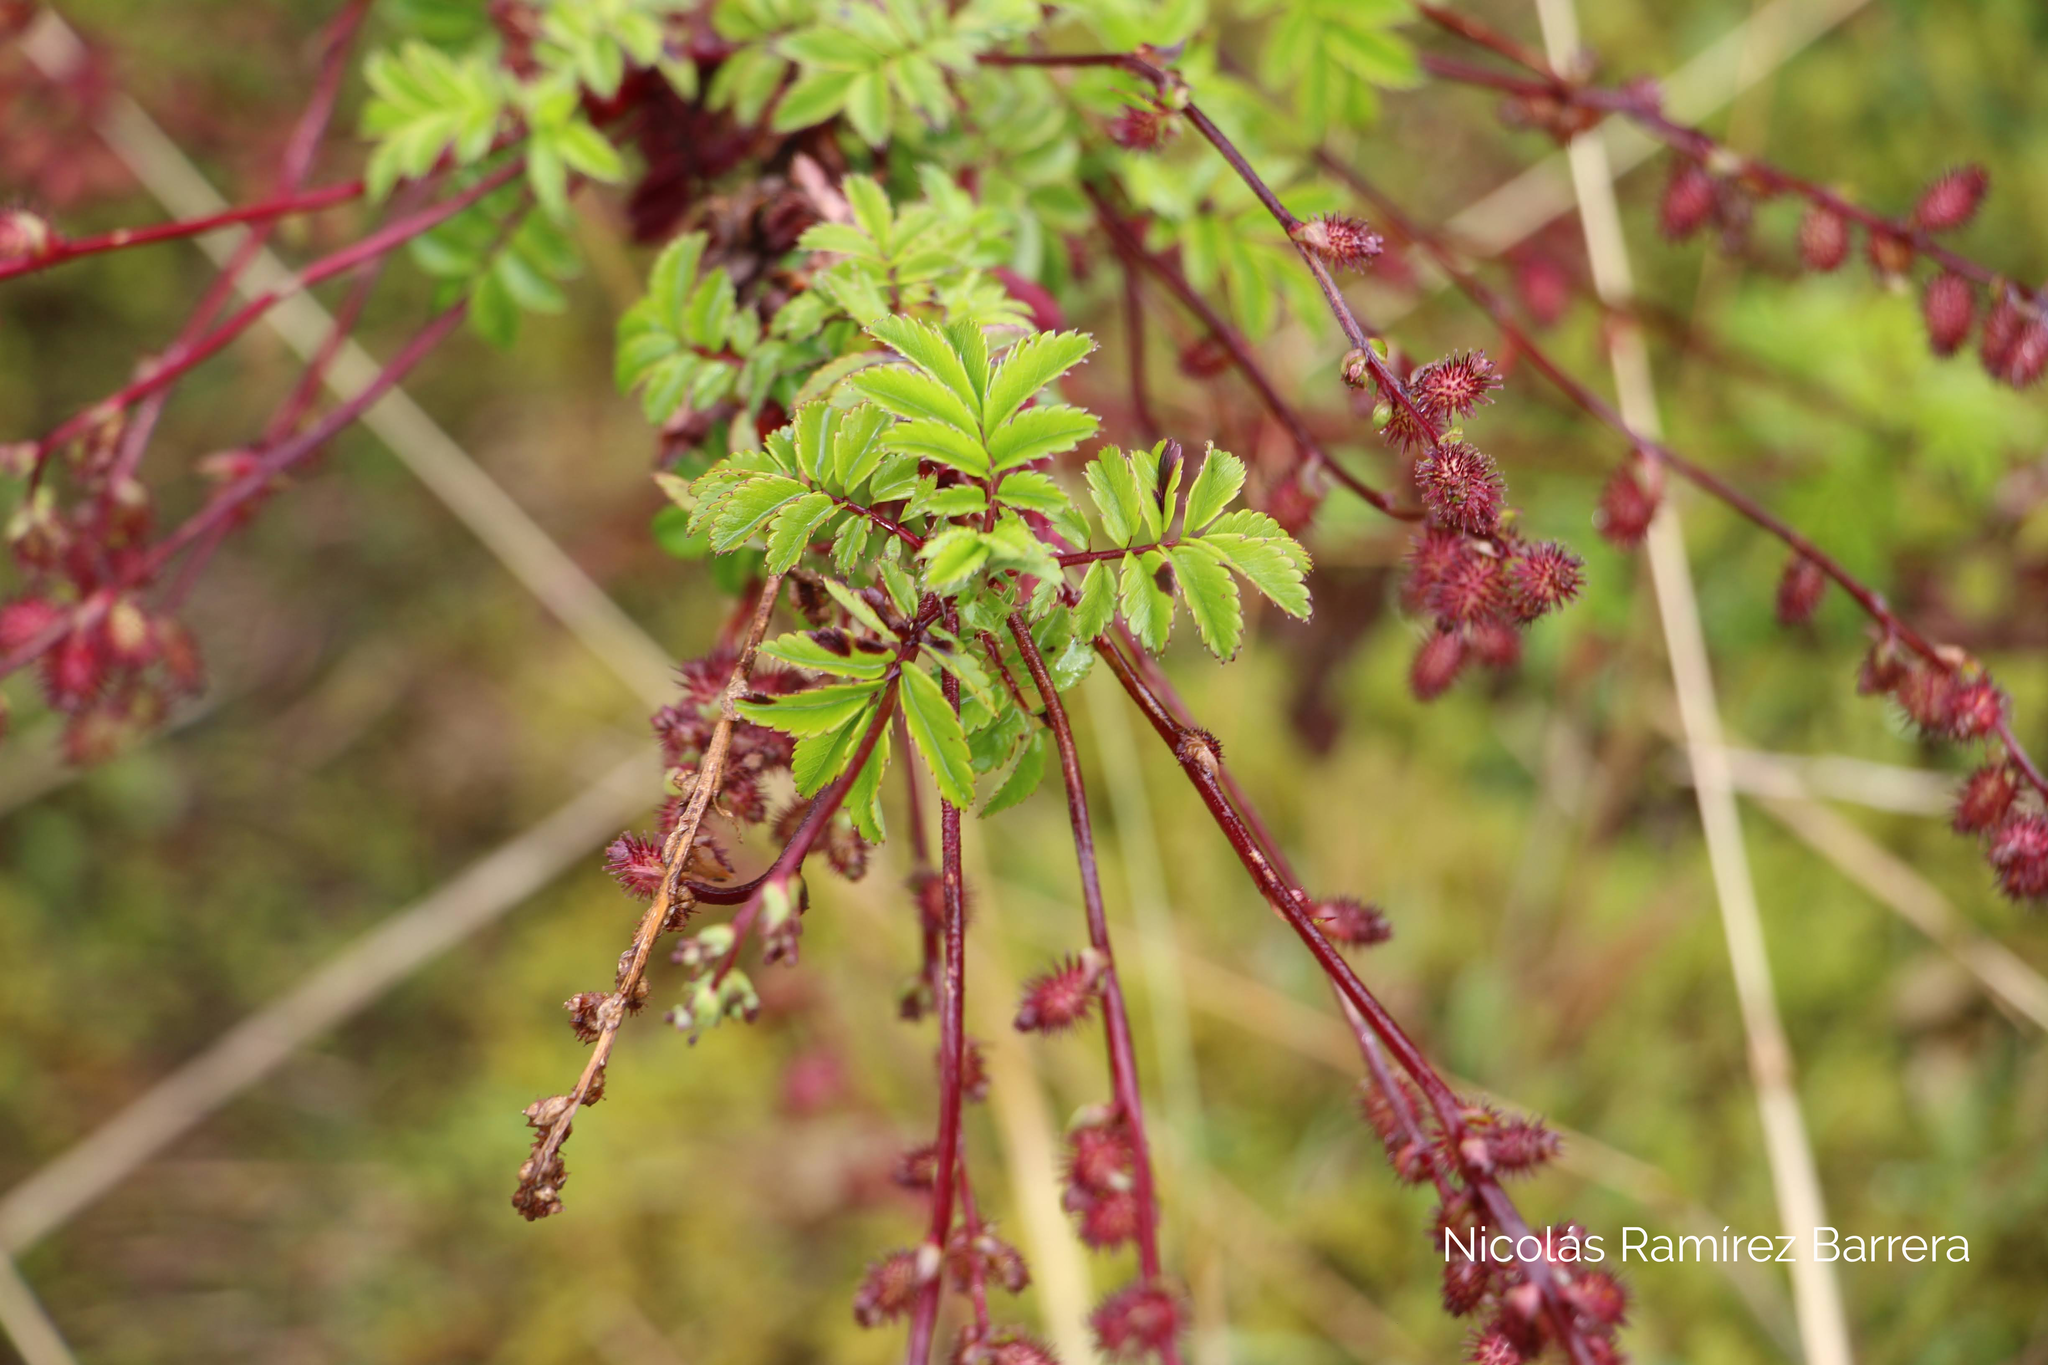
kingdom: Plantae
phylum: Tracheophyta
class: Magnoliopsida
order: Rosales
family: Rosaceae
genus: Acaena
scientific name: Acaena elongata
